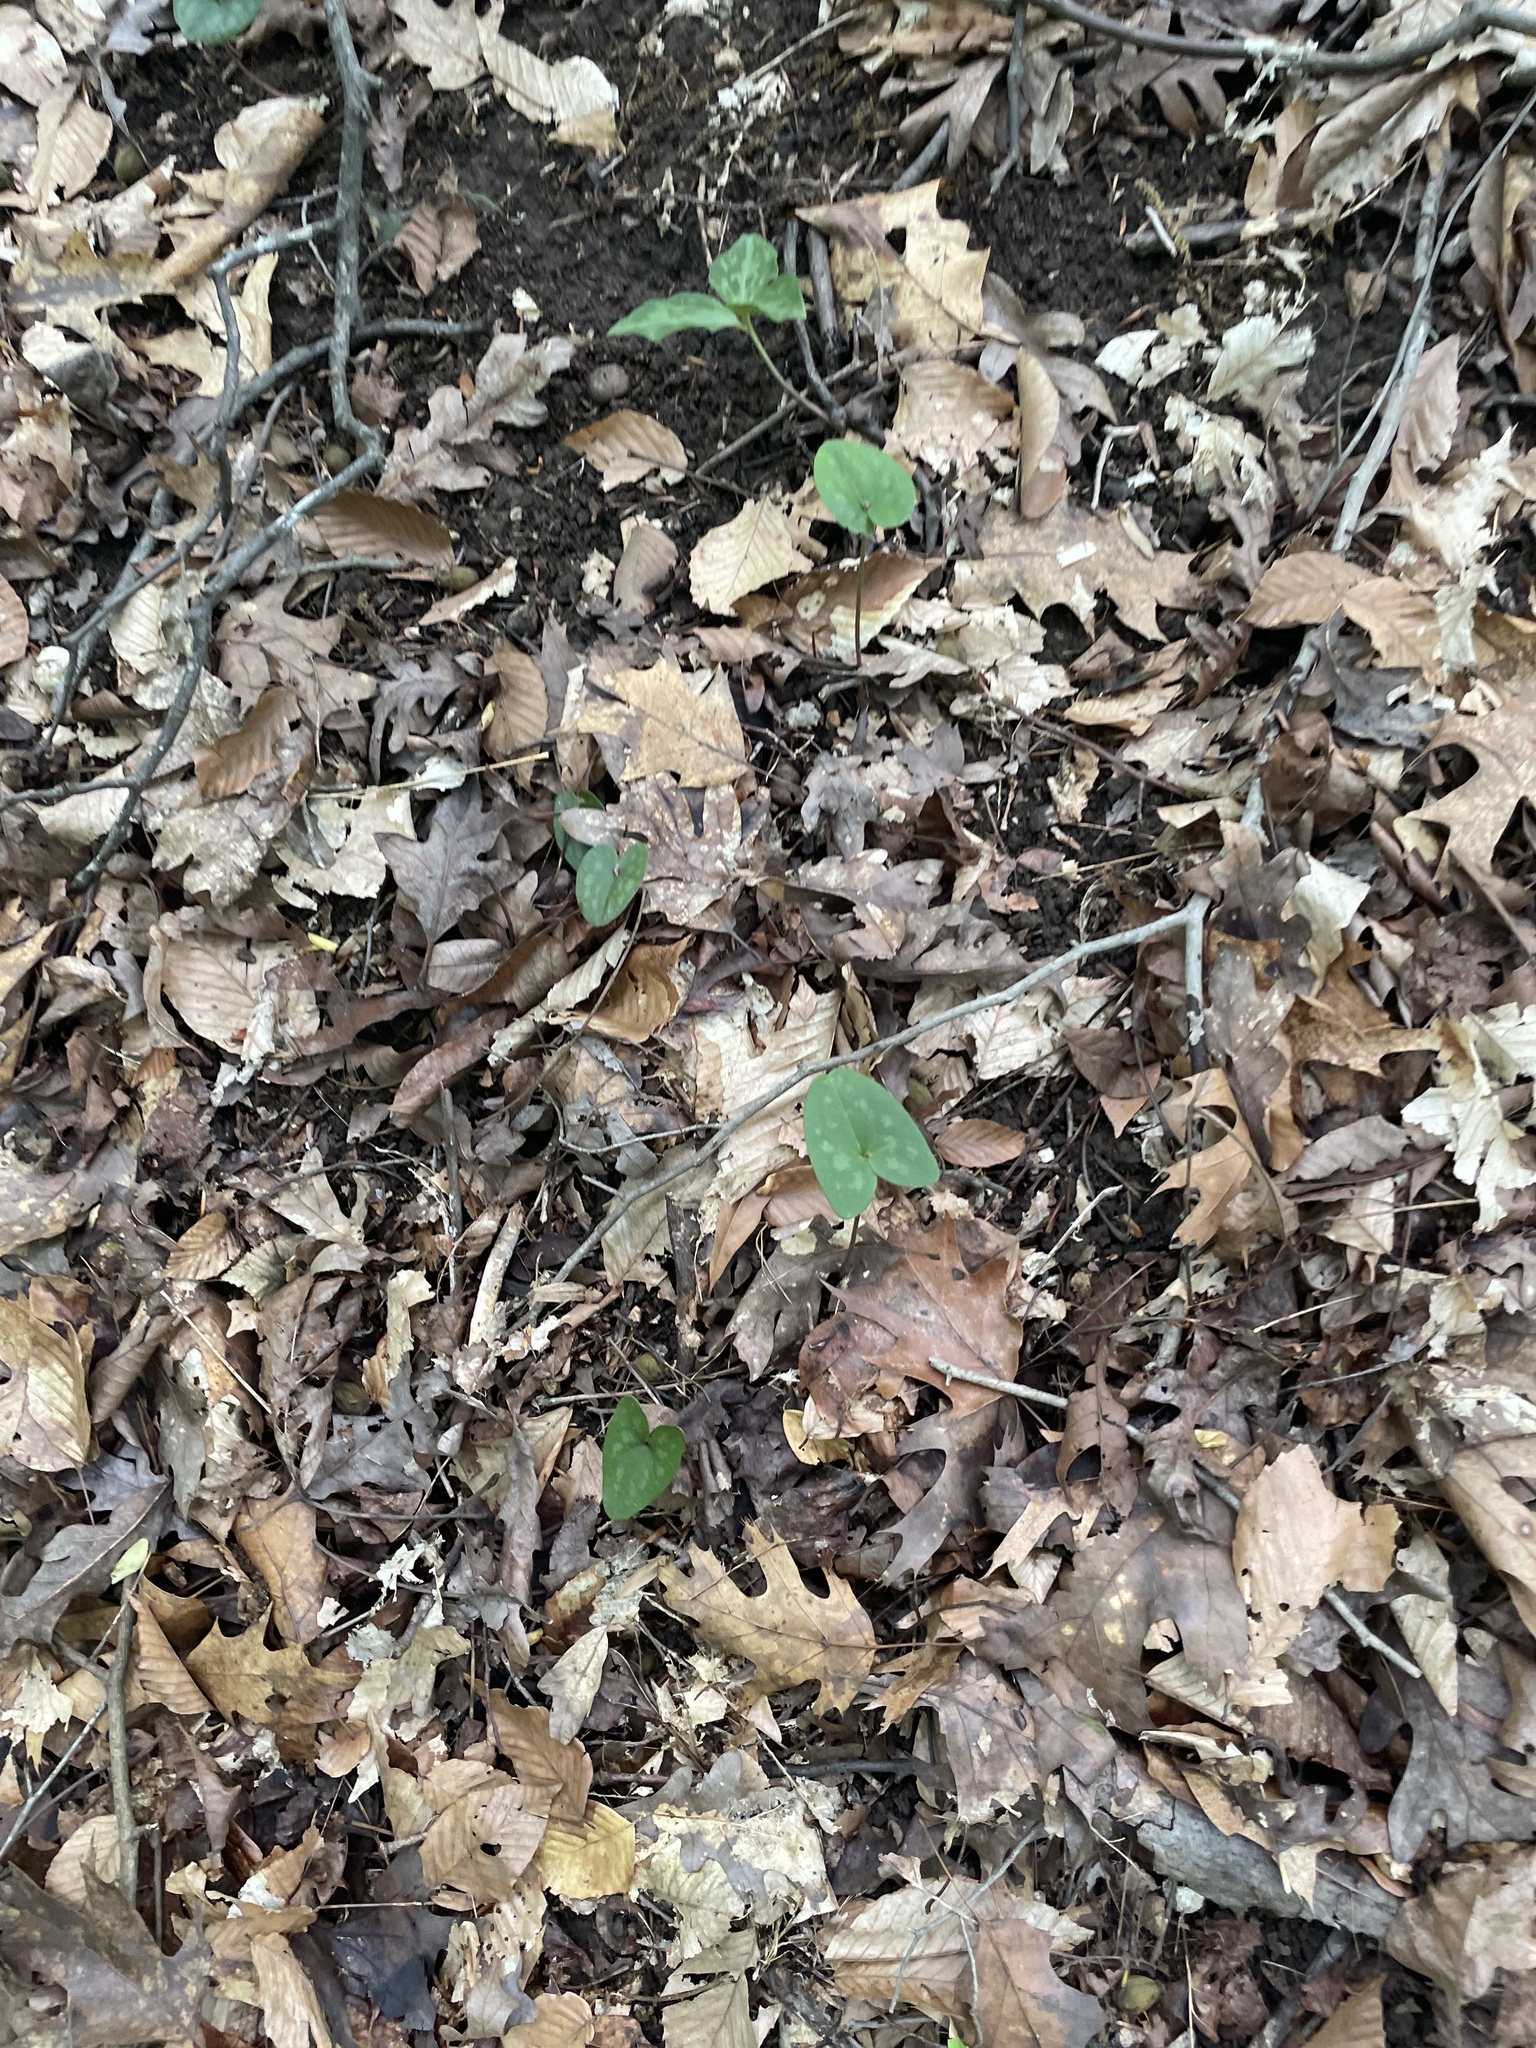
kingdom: Plantae
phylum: Tracheophyta
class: Magnoliopsida
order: Piperales
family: Aristolochiaceae
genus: Hexastylis
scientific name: Hexastylis arifolia
